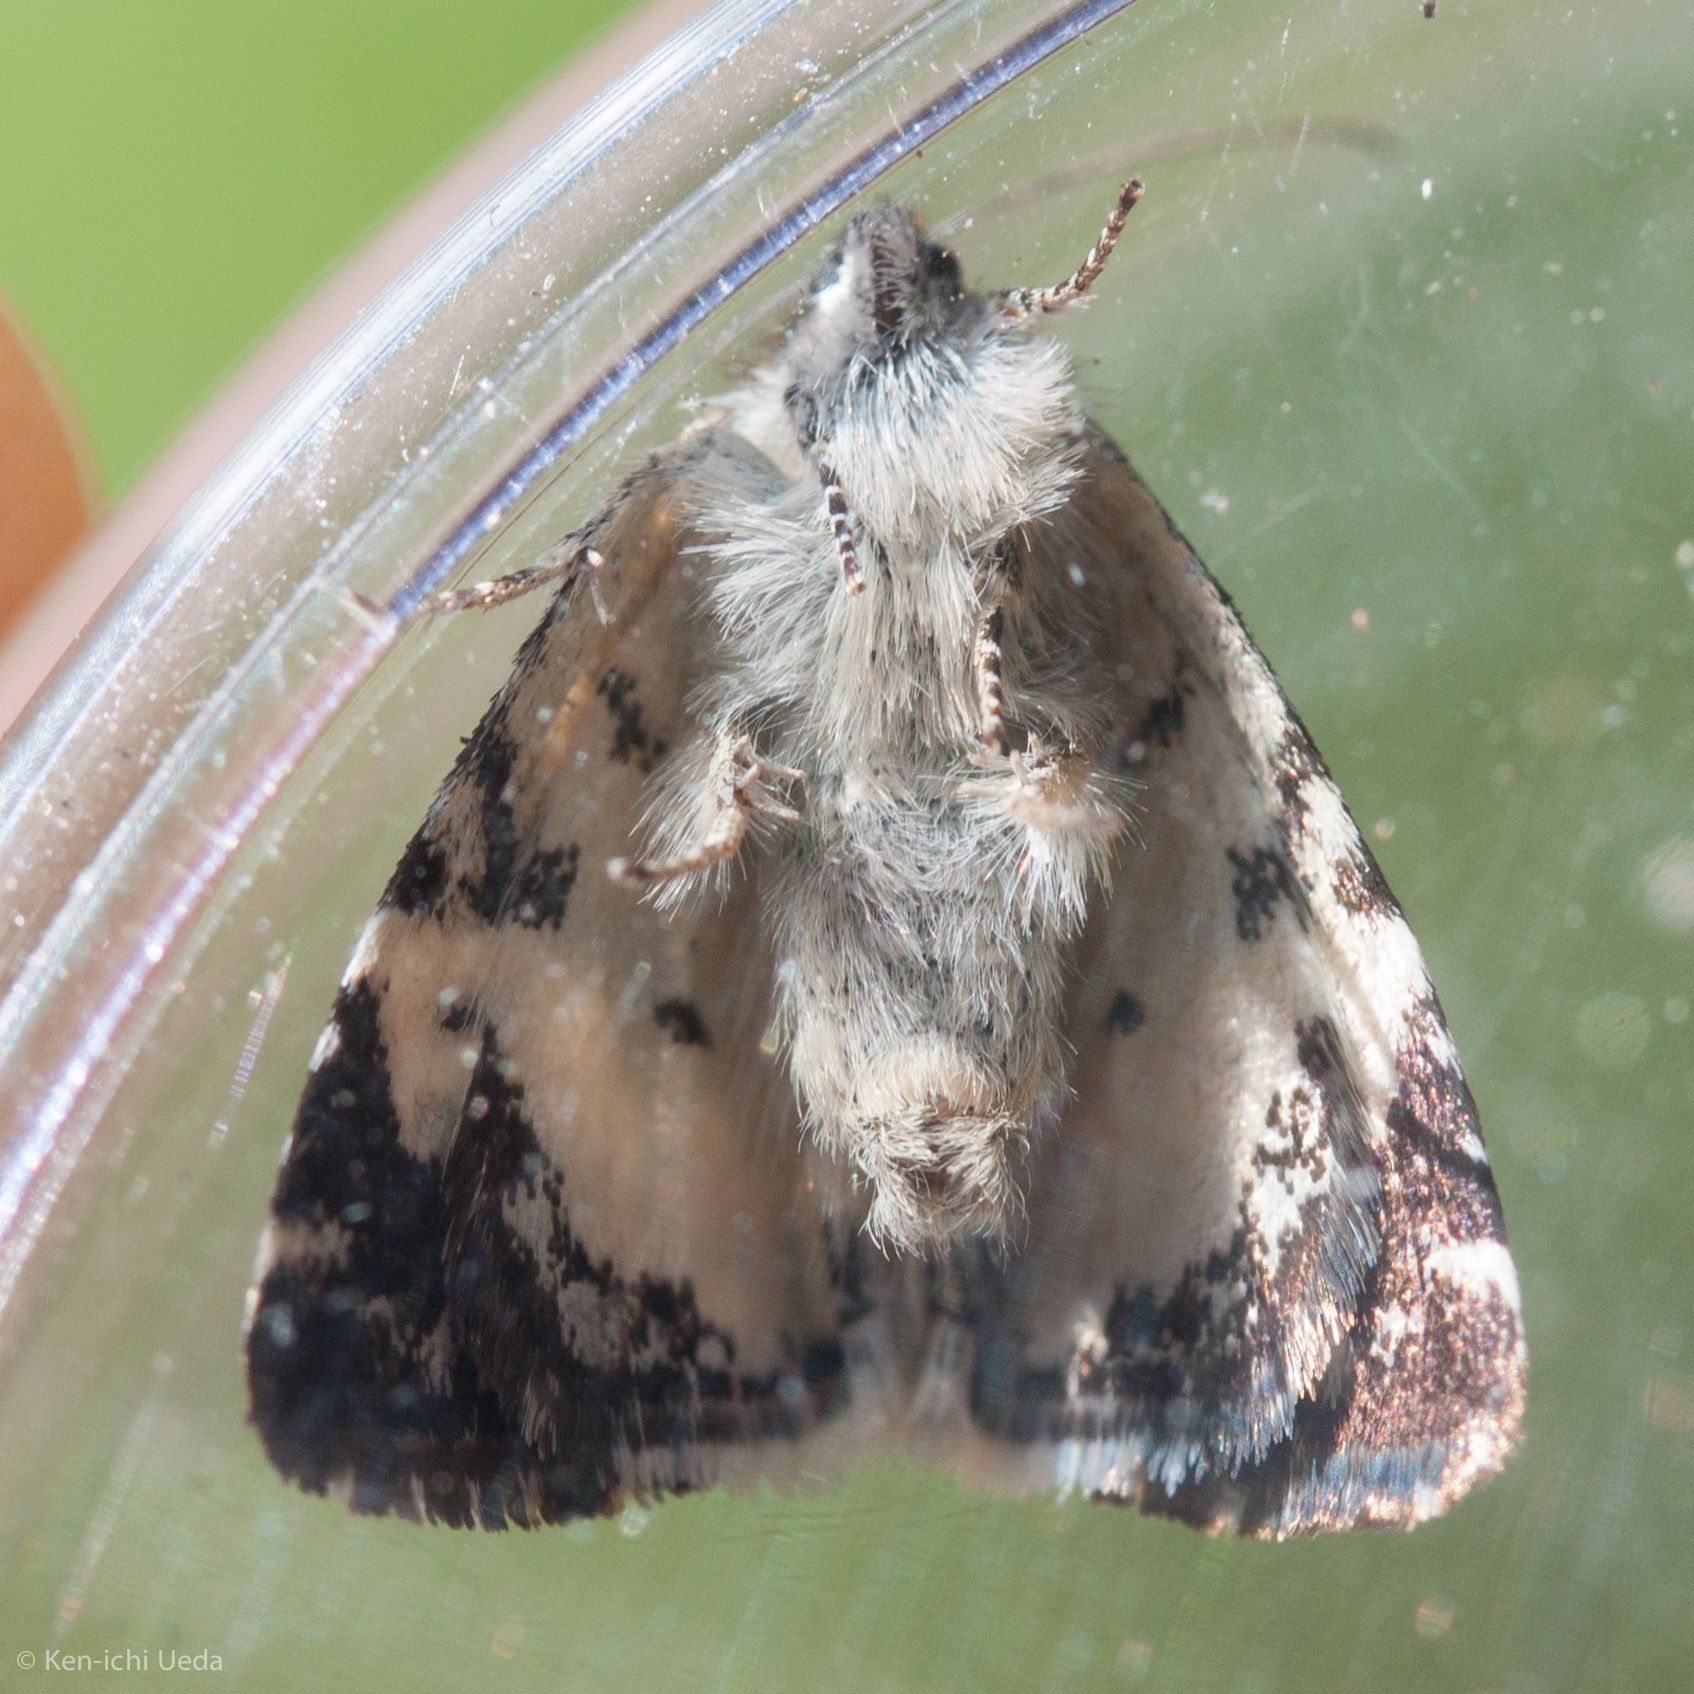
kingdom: Animalia
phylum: Arthropoda
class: Insecta
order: Lepidoptera
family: Noctuidae
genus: Annaphila
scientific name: Annaphila diva
